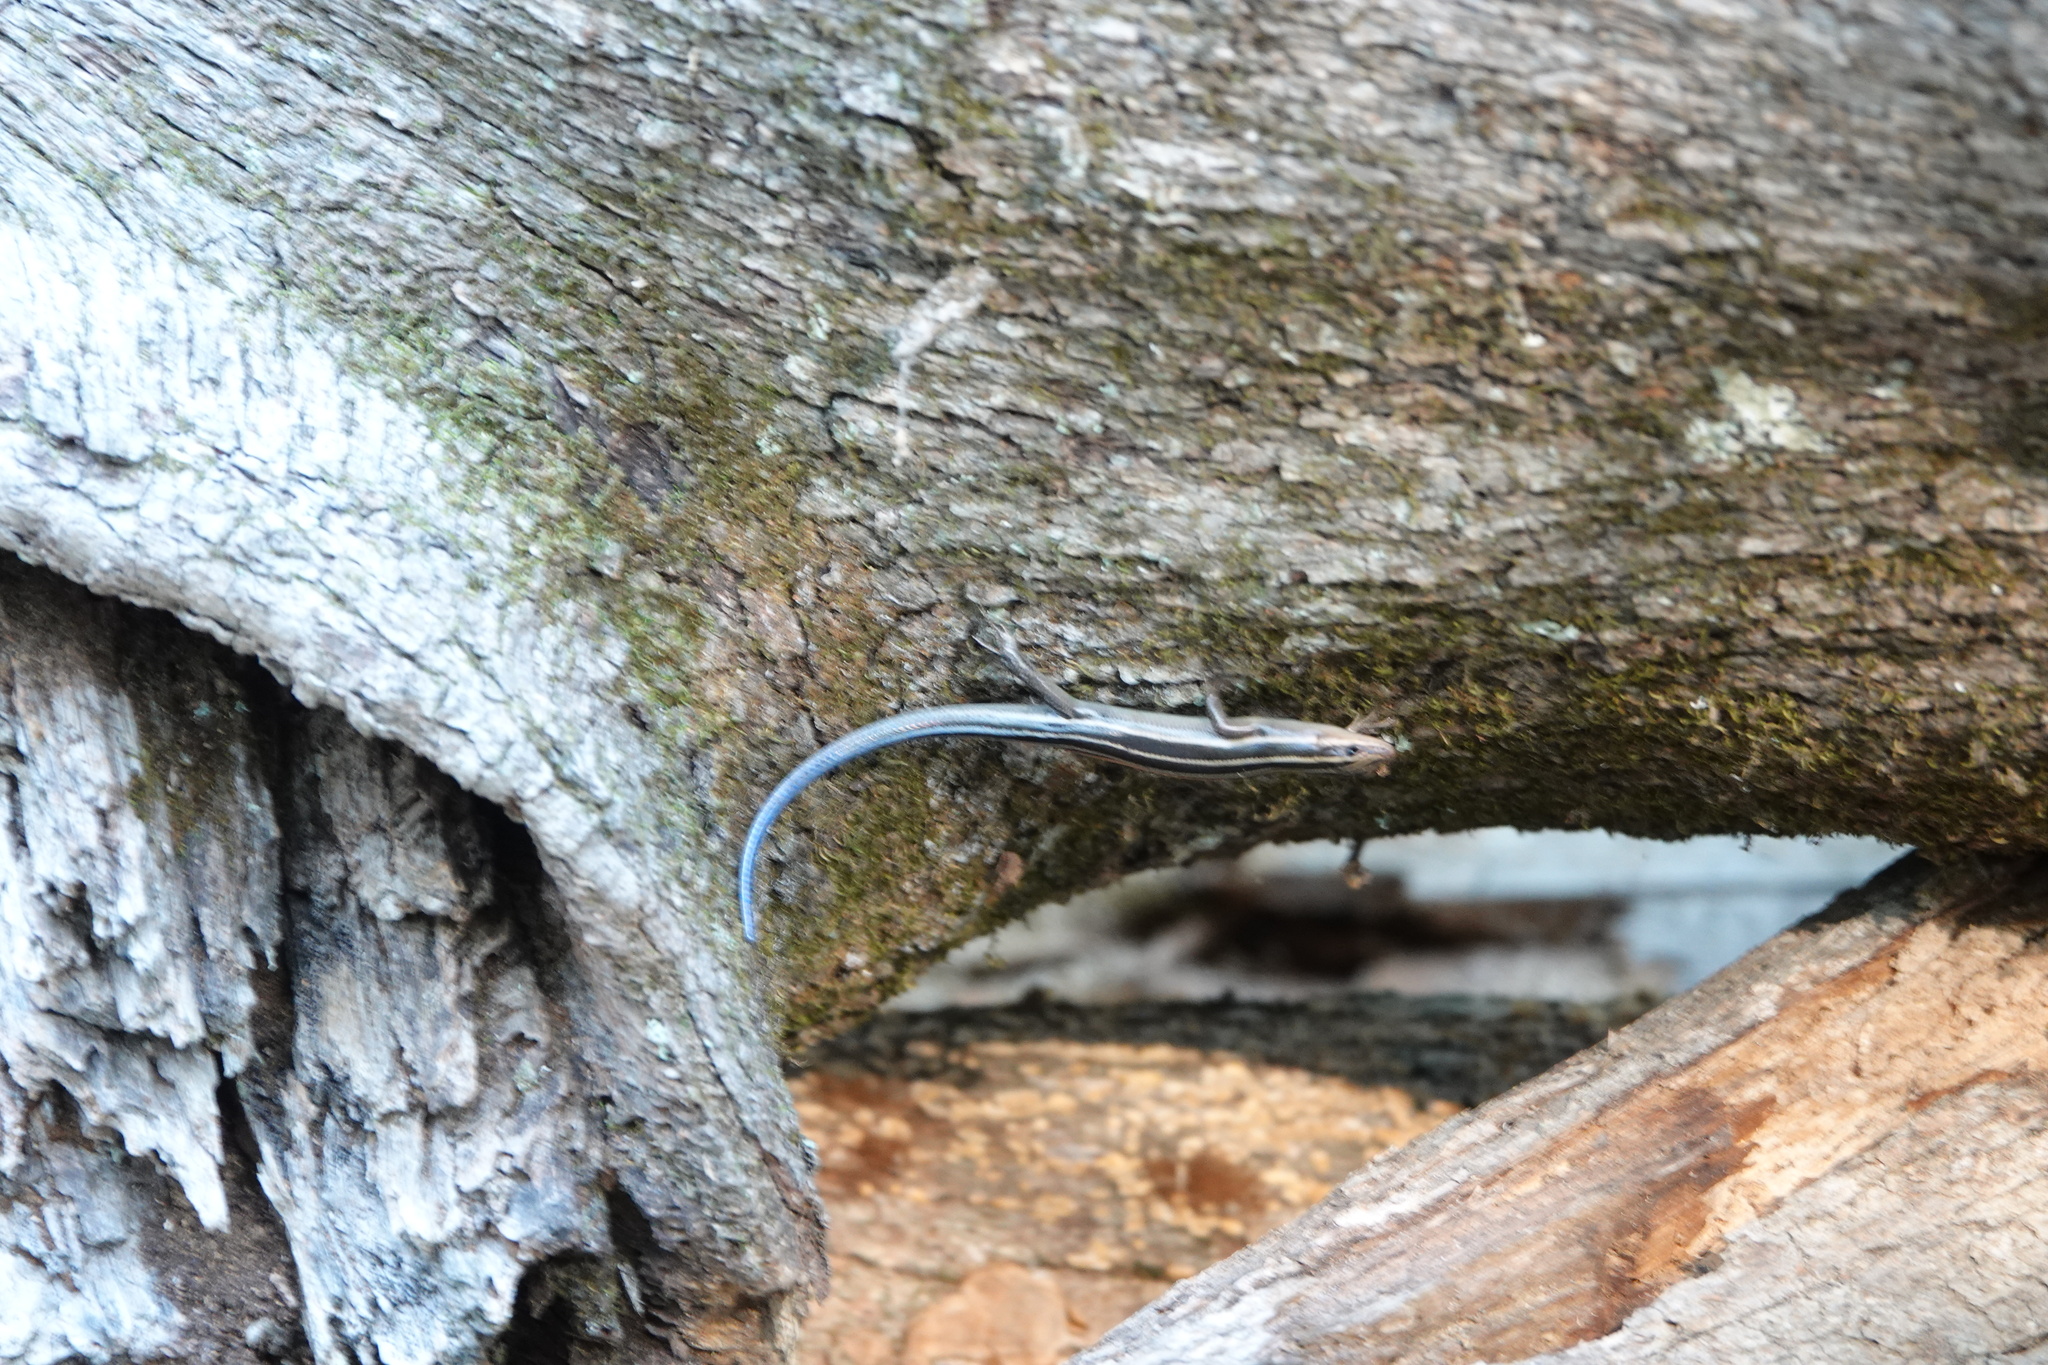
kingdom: Animalia
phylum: Chordata
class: Squamata
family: Scincidae
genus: Plestiodon
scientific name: Plestiodon fasciatus
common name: Five-lined skink
